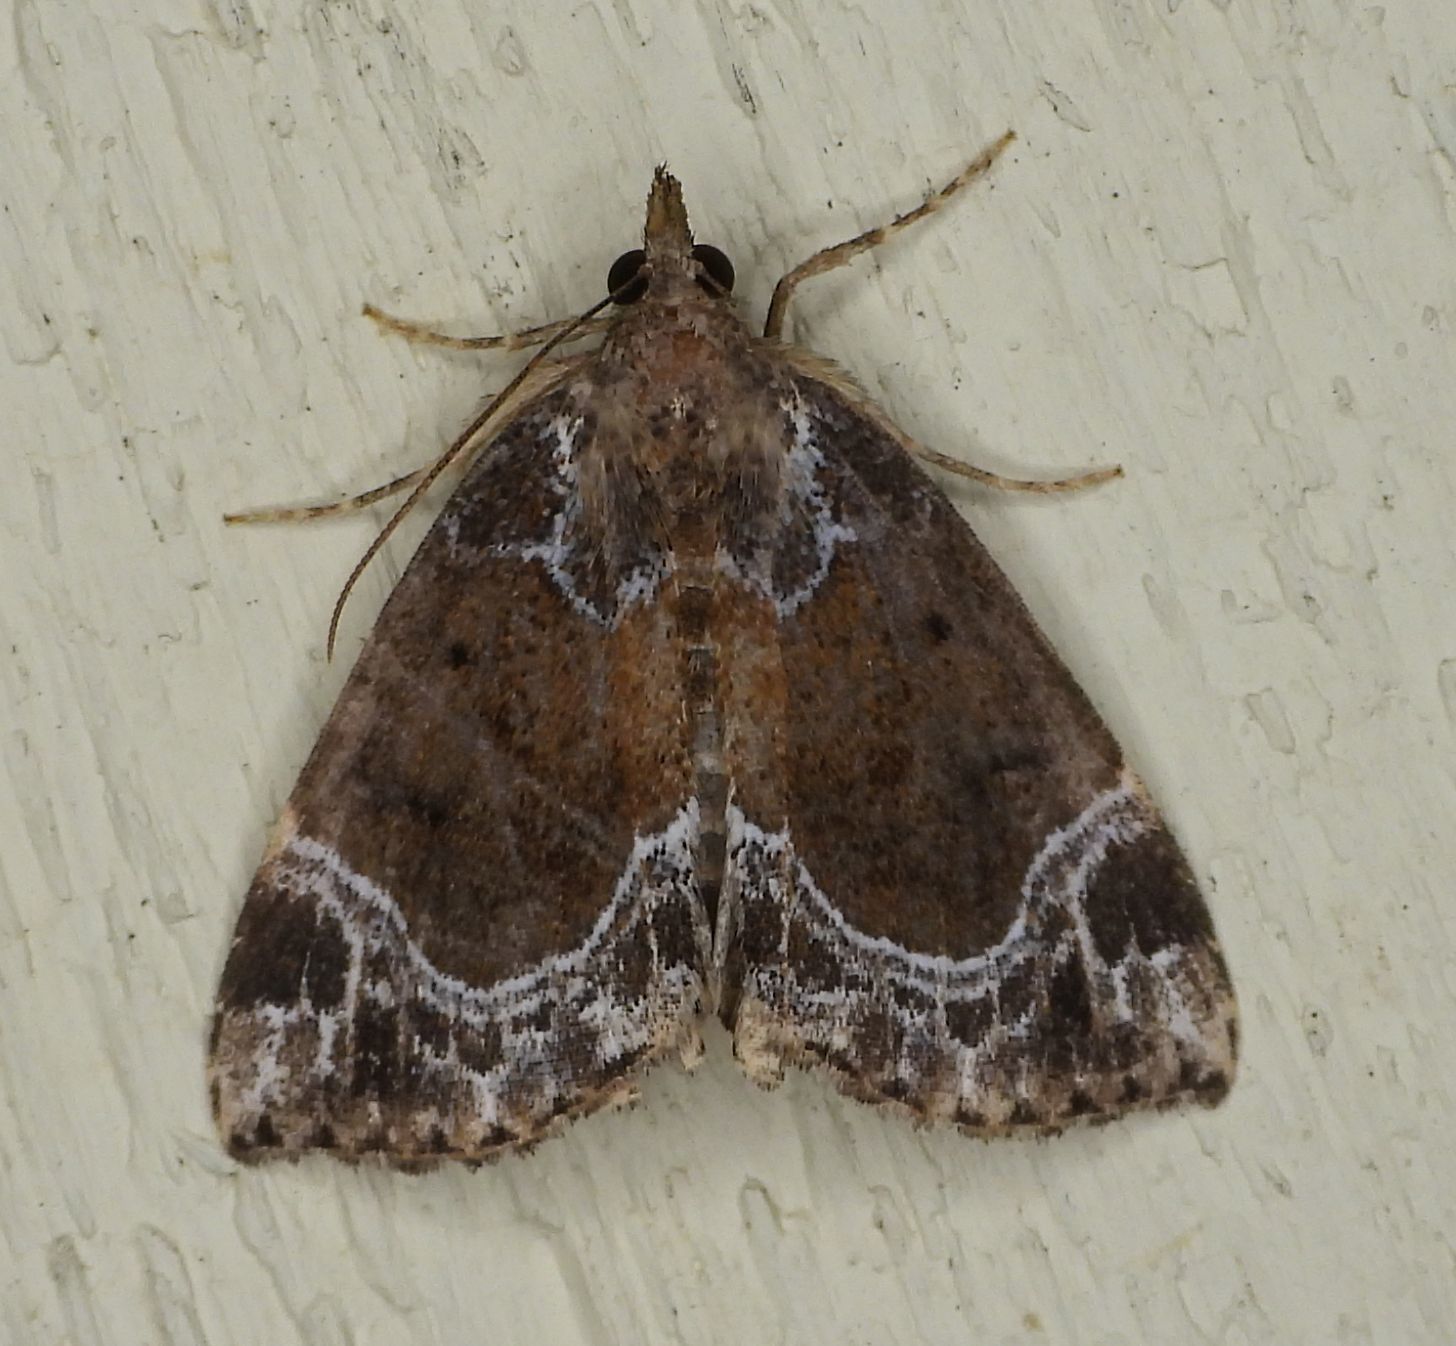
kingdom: Animalia
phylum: Arthropoda
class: Insecta
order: Lepidoptera
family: Erebidae
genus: Hypena
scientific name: Hypena abalienalis
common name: White-lined snout
